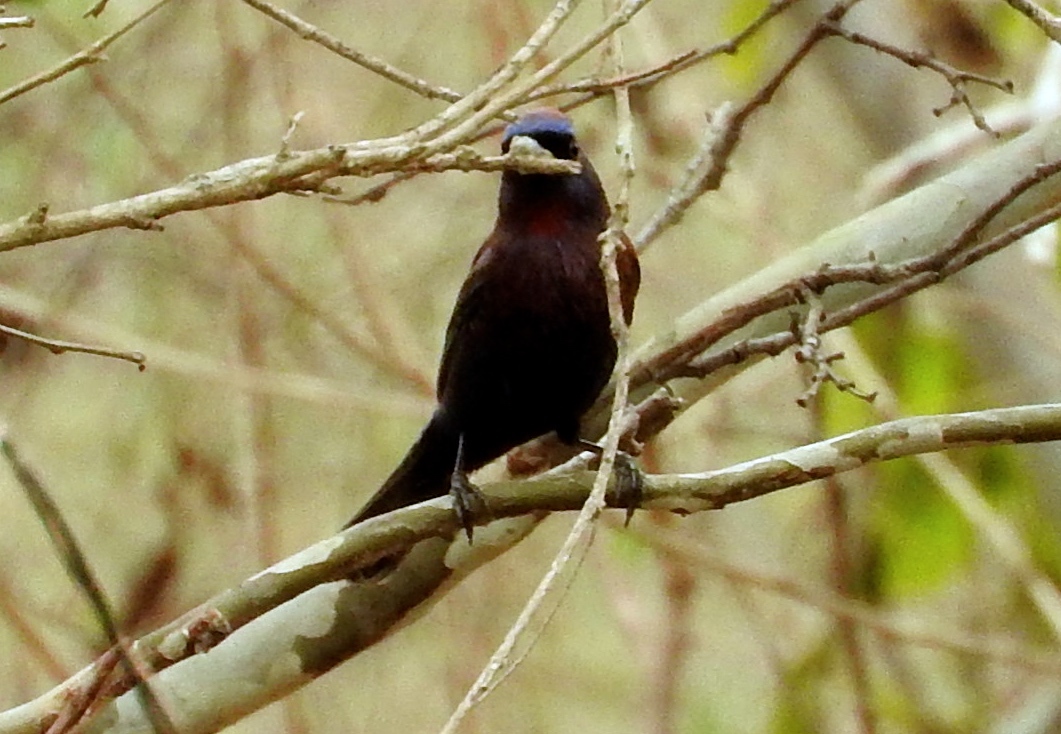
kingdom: Animalia
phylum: Chordata
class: Aves
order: Passeriformes
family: Cardinalidae
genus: Passerina
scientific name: Passerina versicolor
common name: Varied bunting
